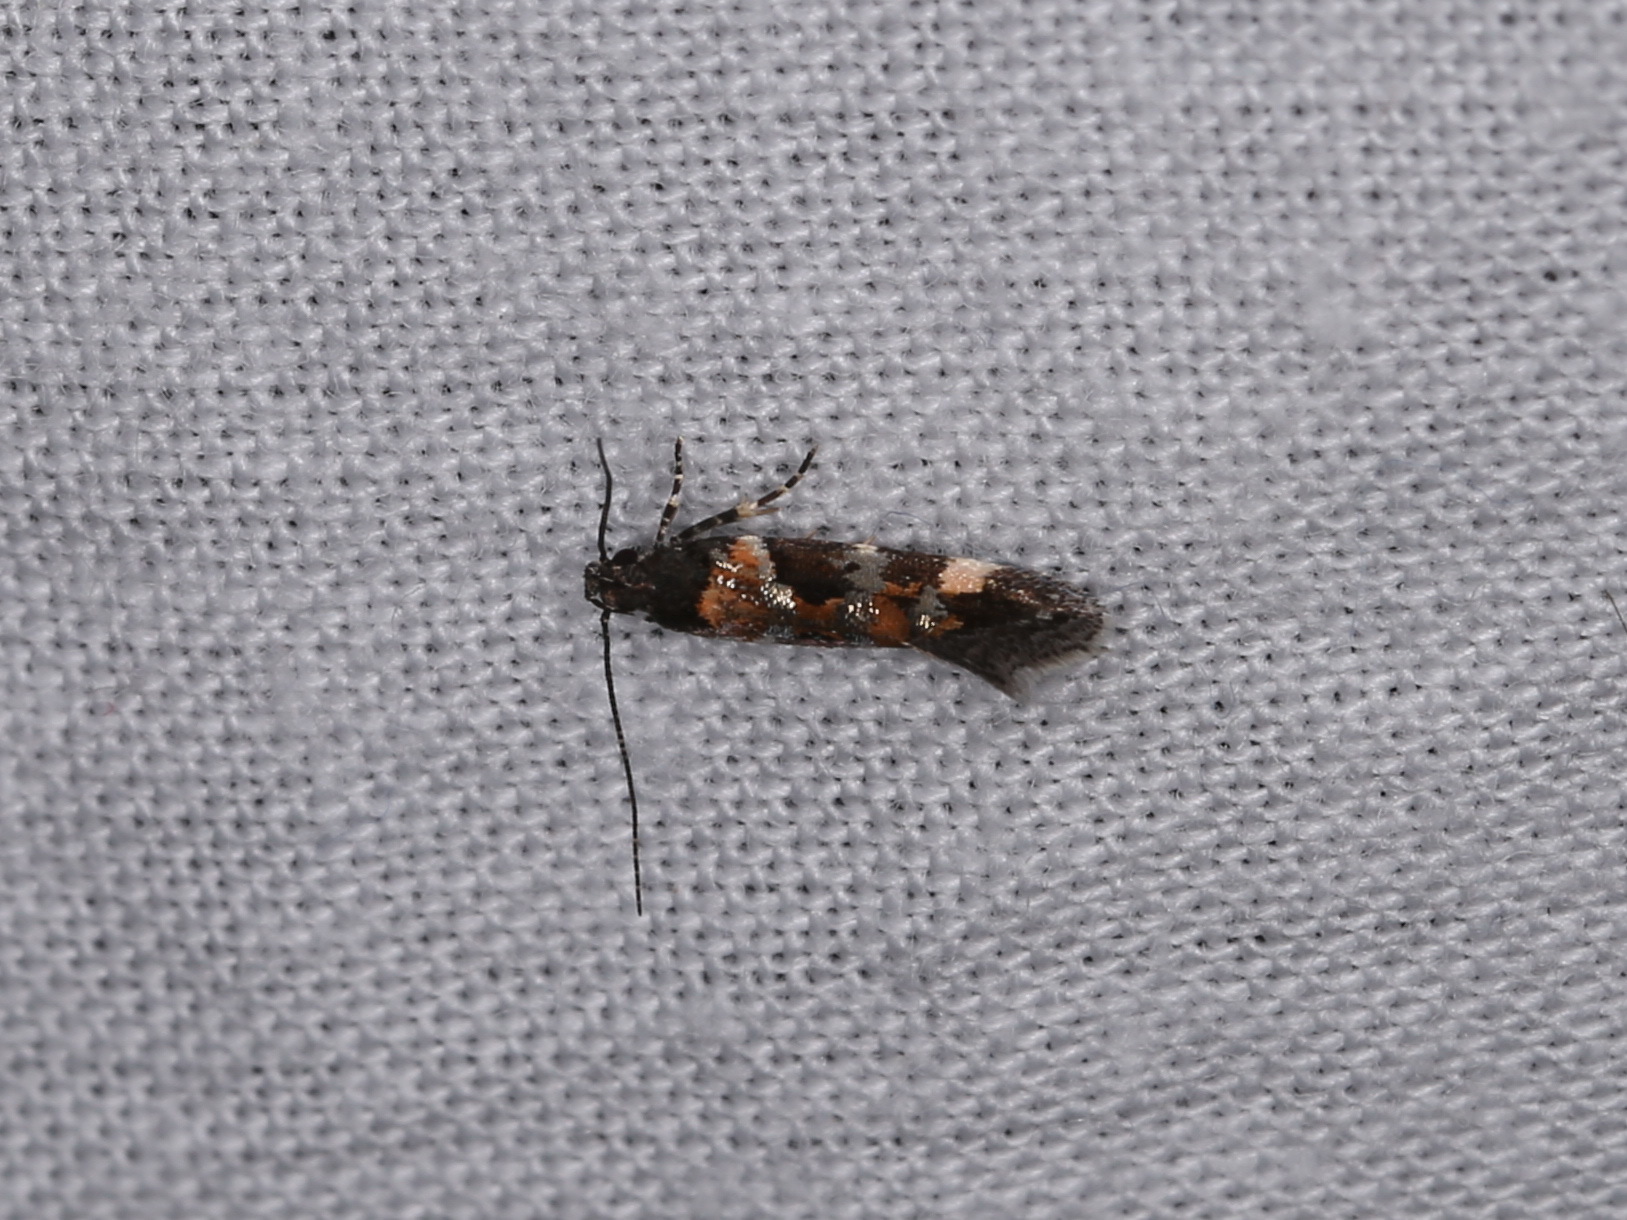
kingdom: Animalia
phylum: Arthropoda
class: Insecta
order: Lepidoptera
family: Gelechiidae
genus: Stegasta
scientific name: Stegasta variana
